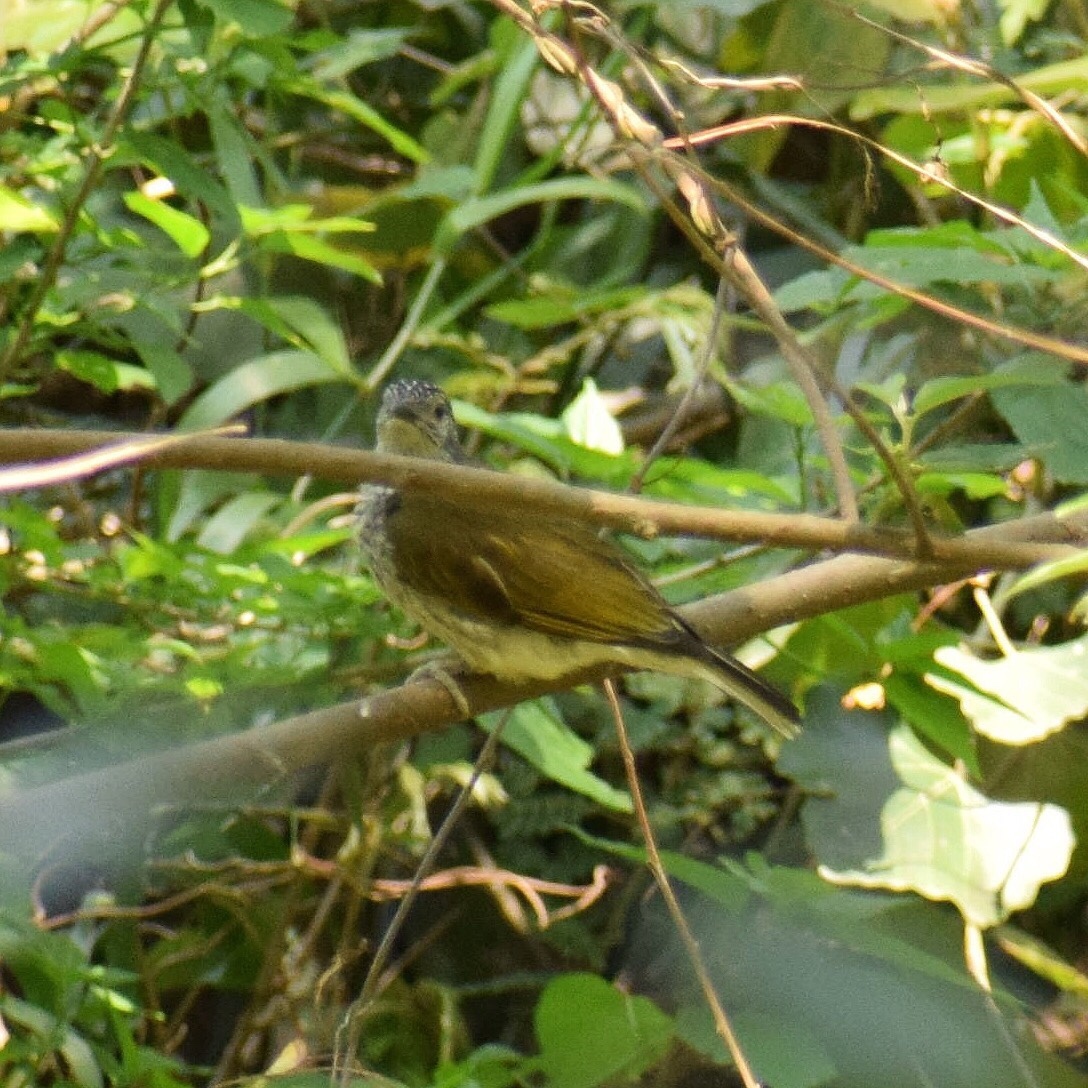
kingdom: Animalia
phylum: Chordata
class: Aves
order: Piciformes
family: Indicatoridae
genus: Indicator
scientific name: Indicator variegatus
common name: Scaly-throated honeyguide
